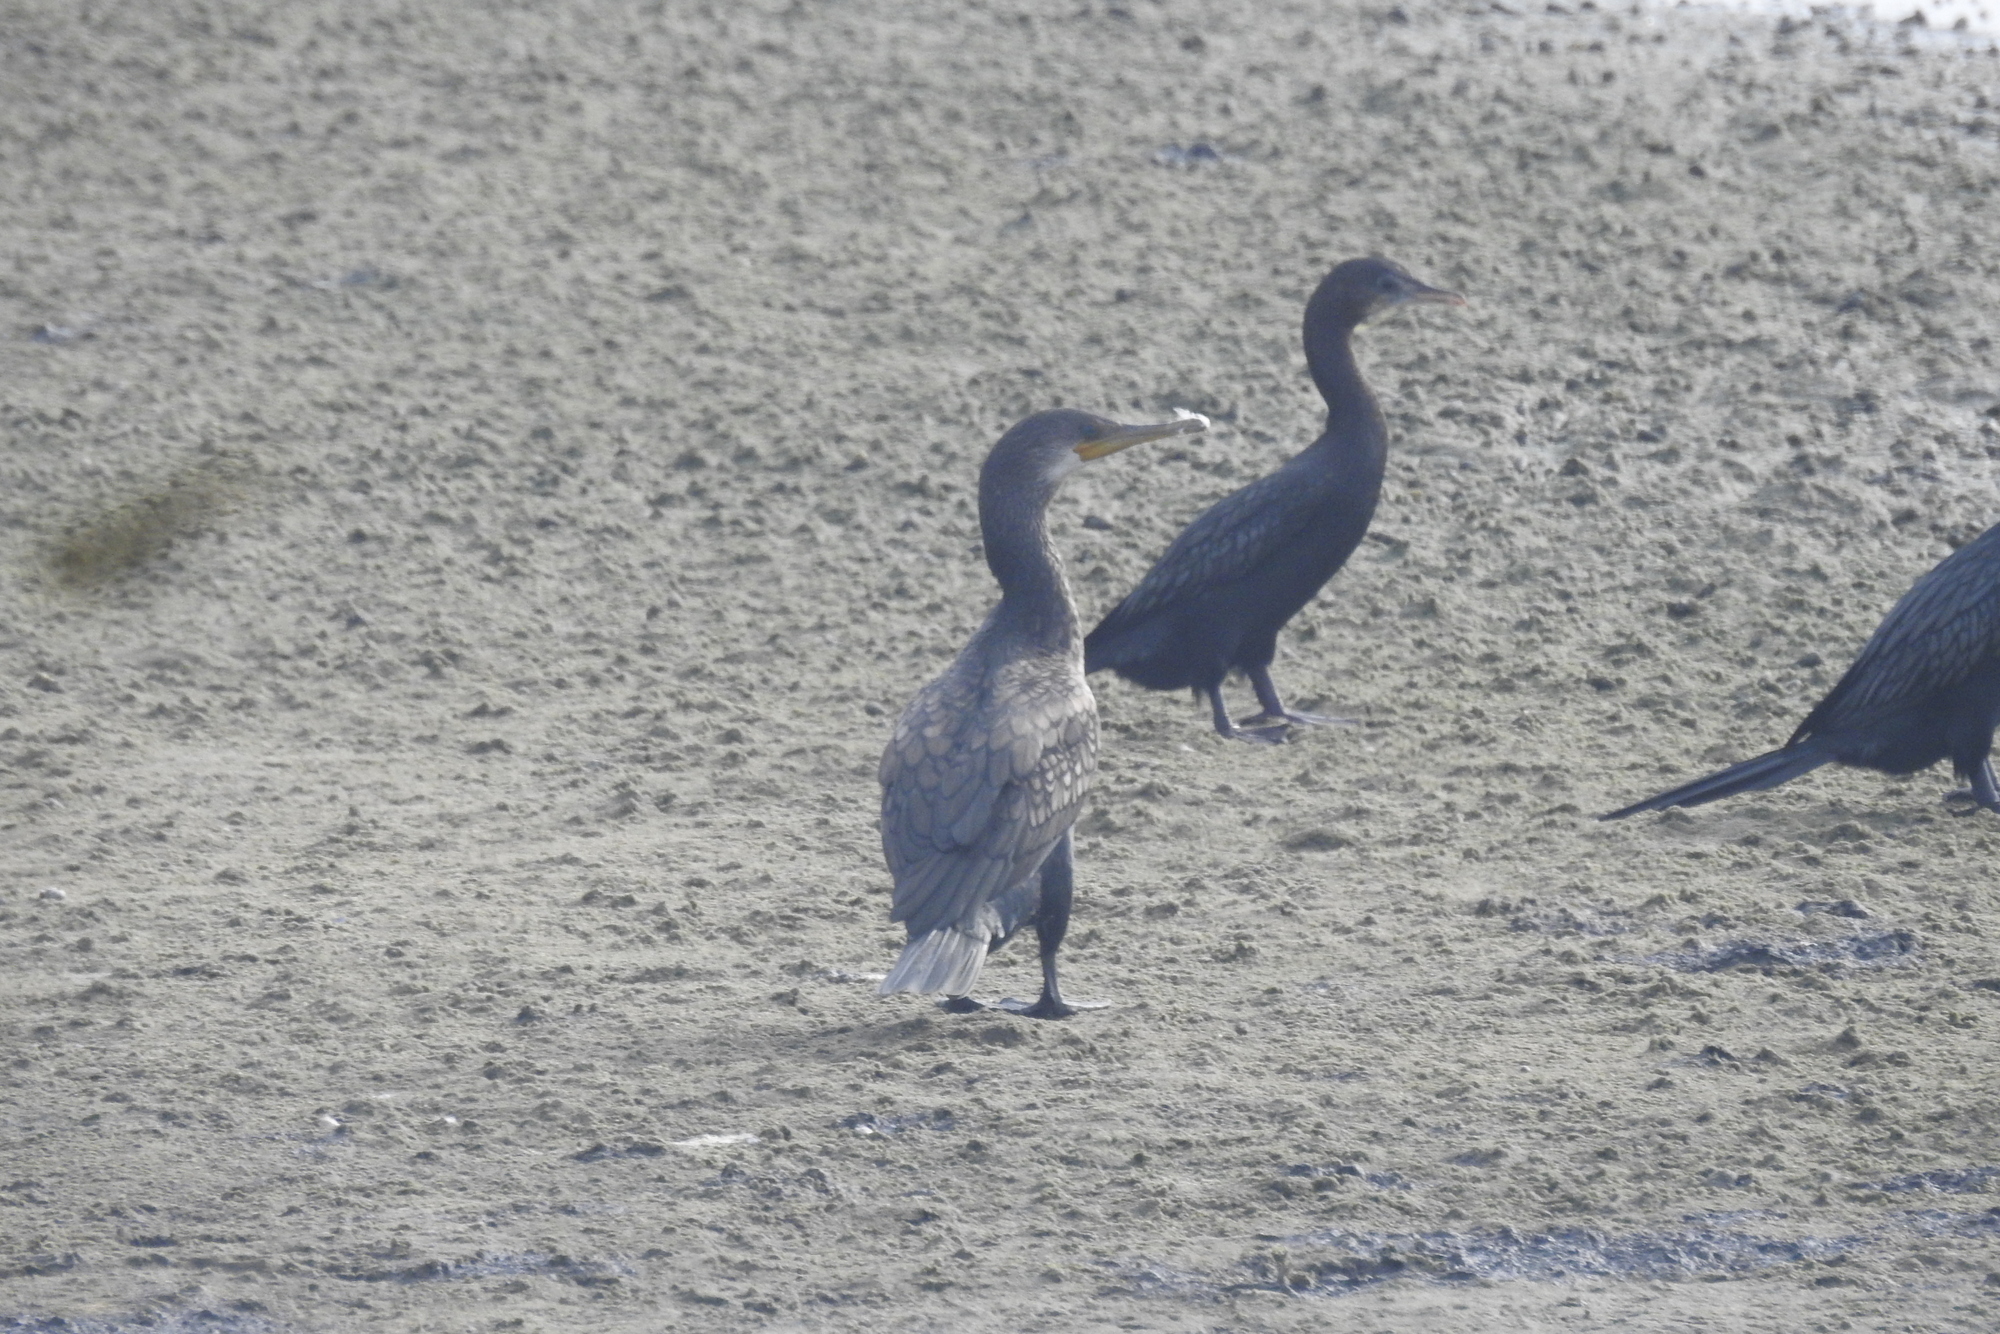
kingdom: Animalia
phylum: Chordata
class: Aves
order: Suliformes
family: Phalacrocoracidae
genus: Phalacrocorax
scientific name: Phalacrocorax fuscicollis
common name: Indian cormorant
